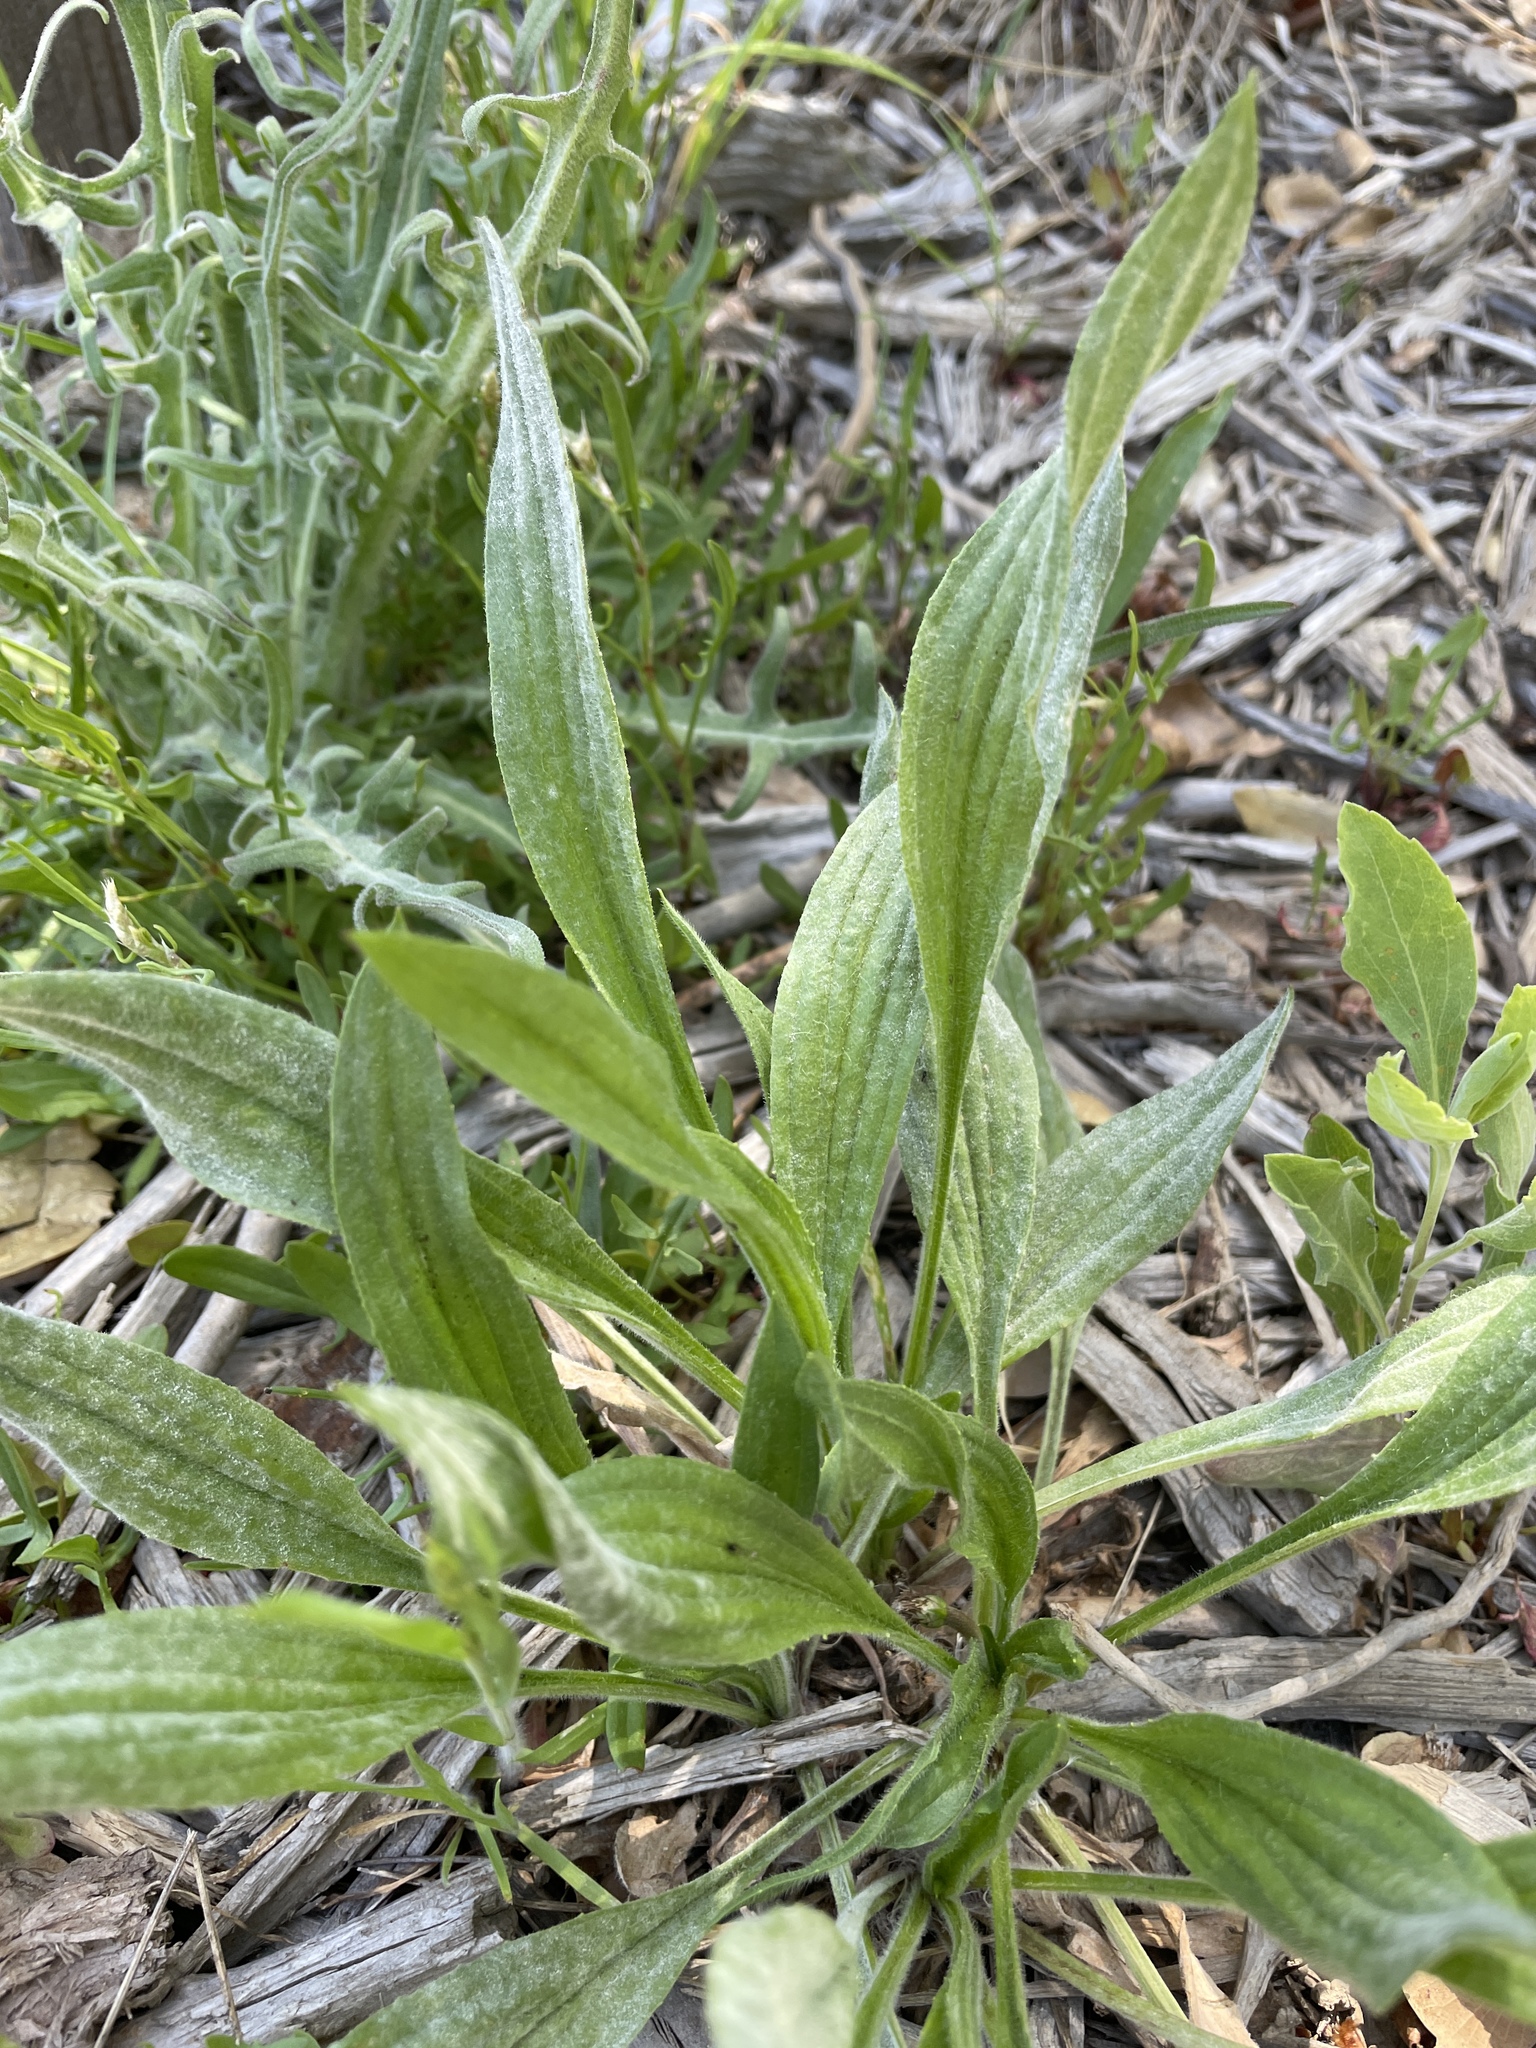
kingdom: Plantae
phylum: Tracheophyta
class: Magnoliopsida
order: Lamiales
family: Plantaginaceae
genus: Plantago
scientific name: Plantago lanceolata
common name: Ribwort plantain
